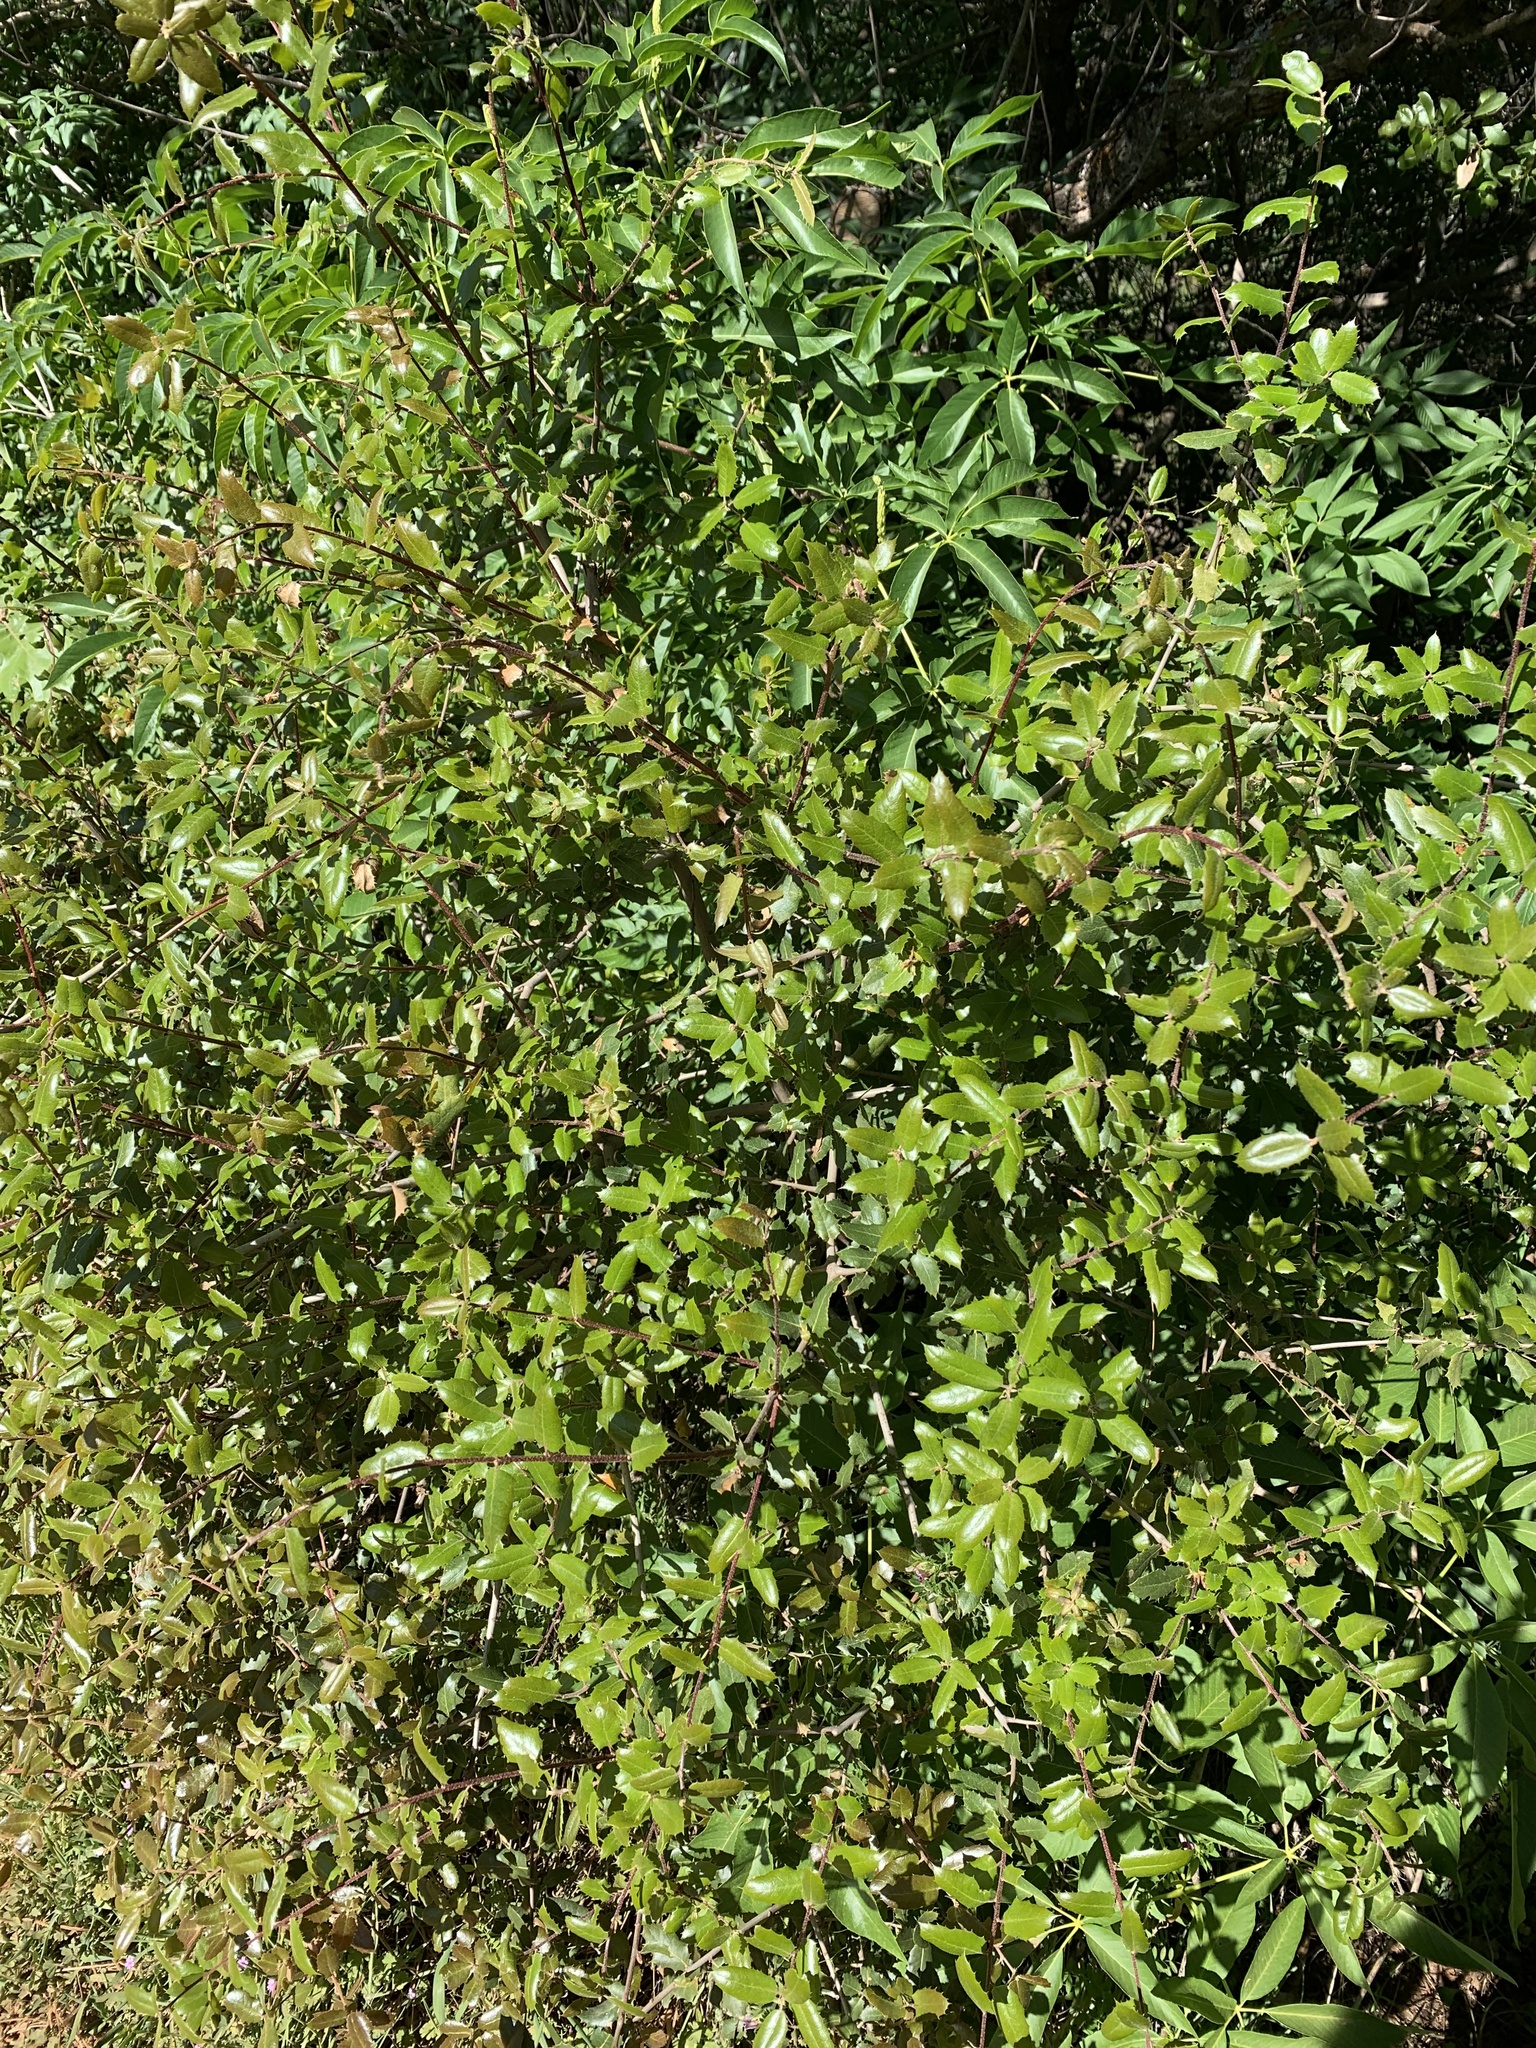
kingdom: Plantae
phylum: Tracheophyta
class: Magnoliopsida
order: Fagales
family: Fagaceae
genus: Quercus
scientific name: Quercus wislizeni
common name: Interior live oak
